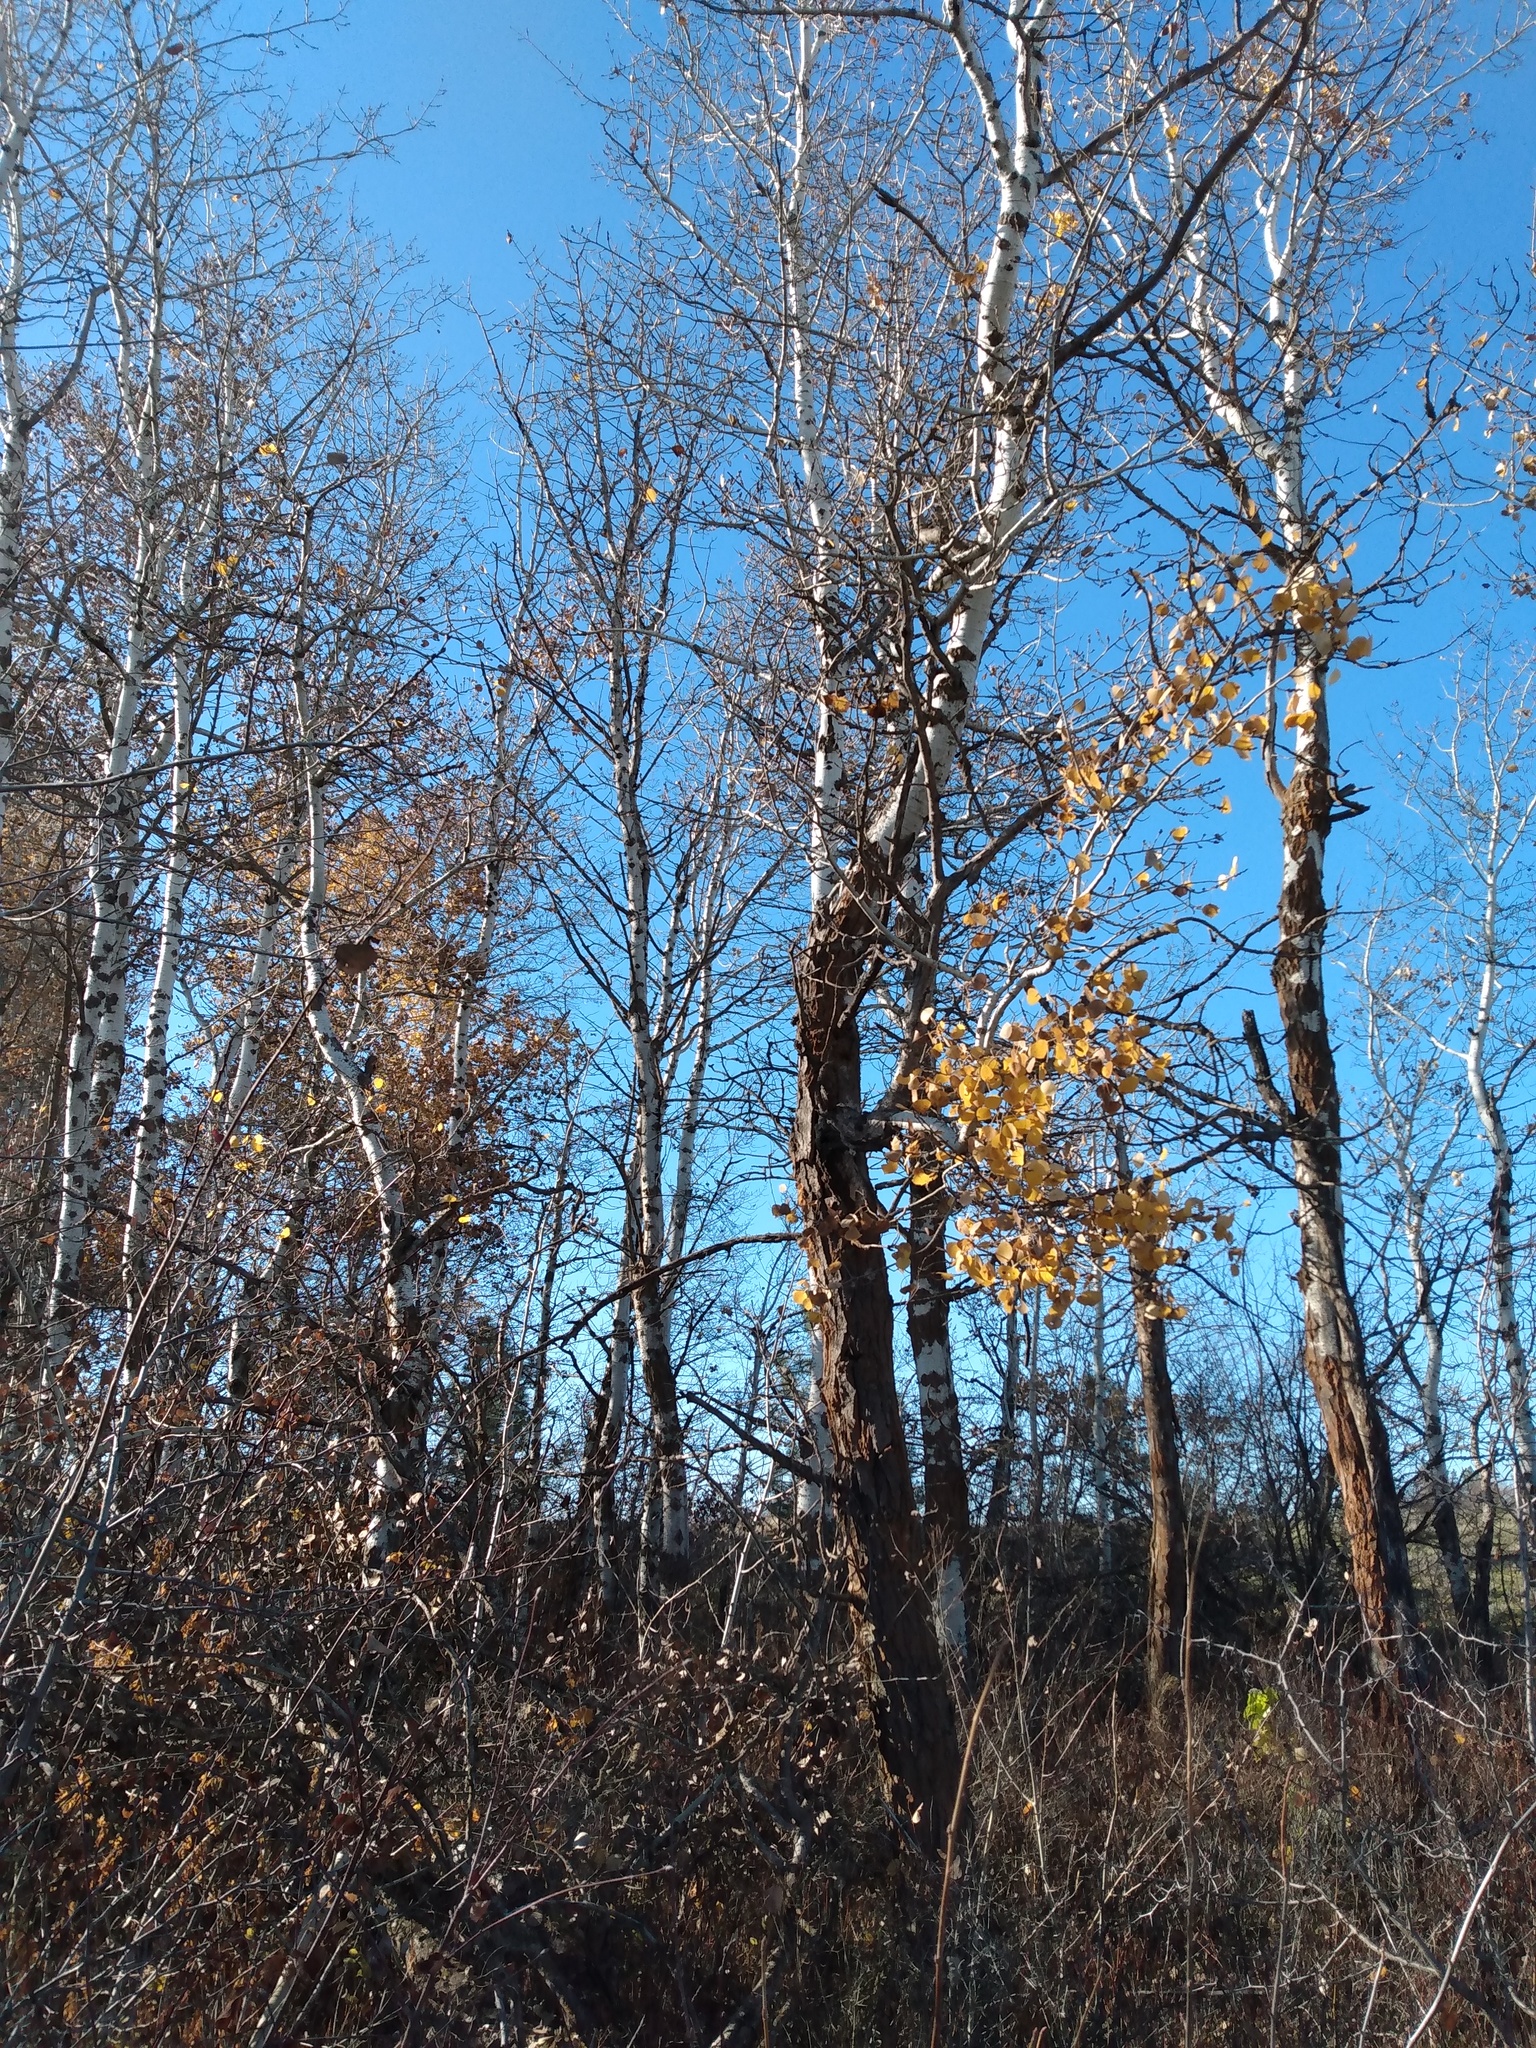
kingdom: Plantae
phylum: Tracheophyta
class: Magnoliopsida
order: Malpighiales
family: Salicaceae
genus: Populus
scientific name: Populus tremuloides
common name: Quaking aspen
